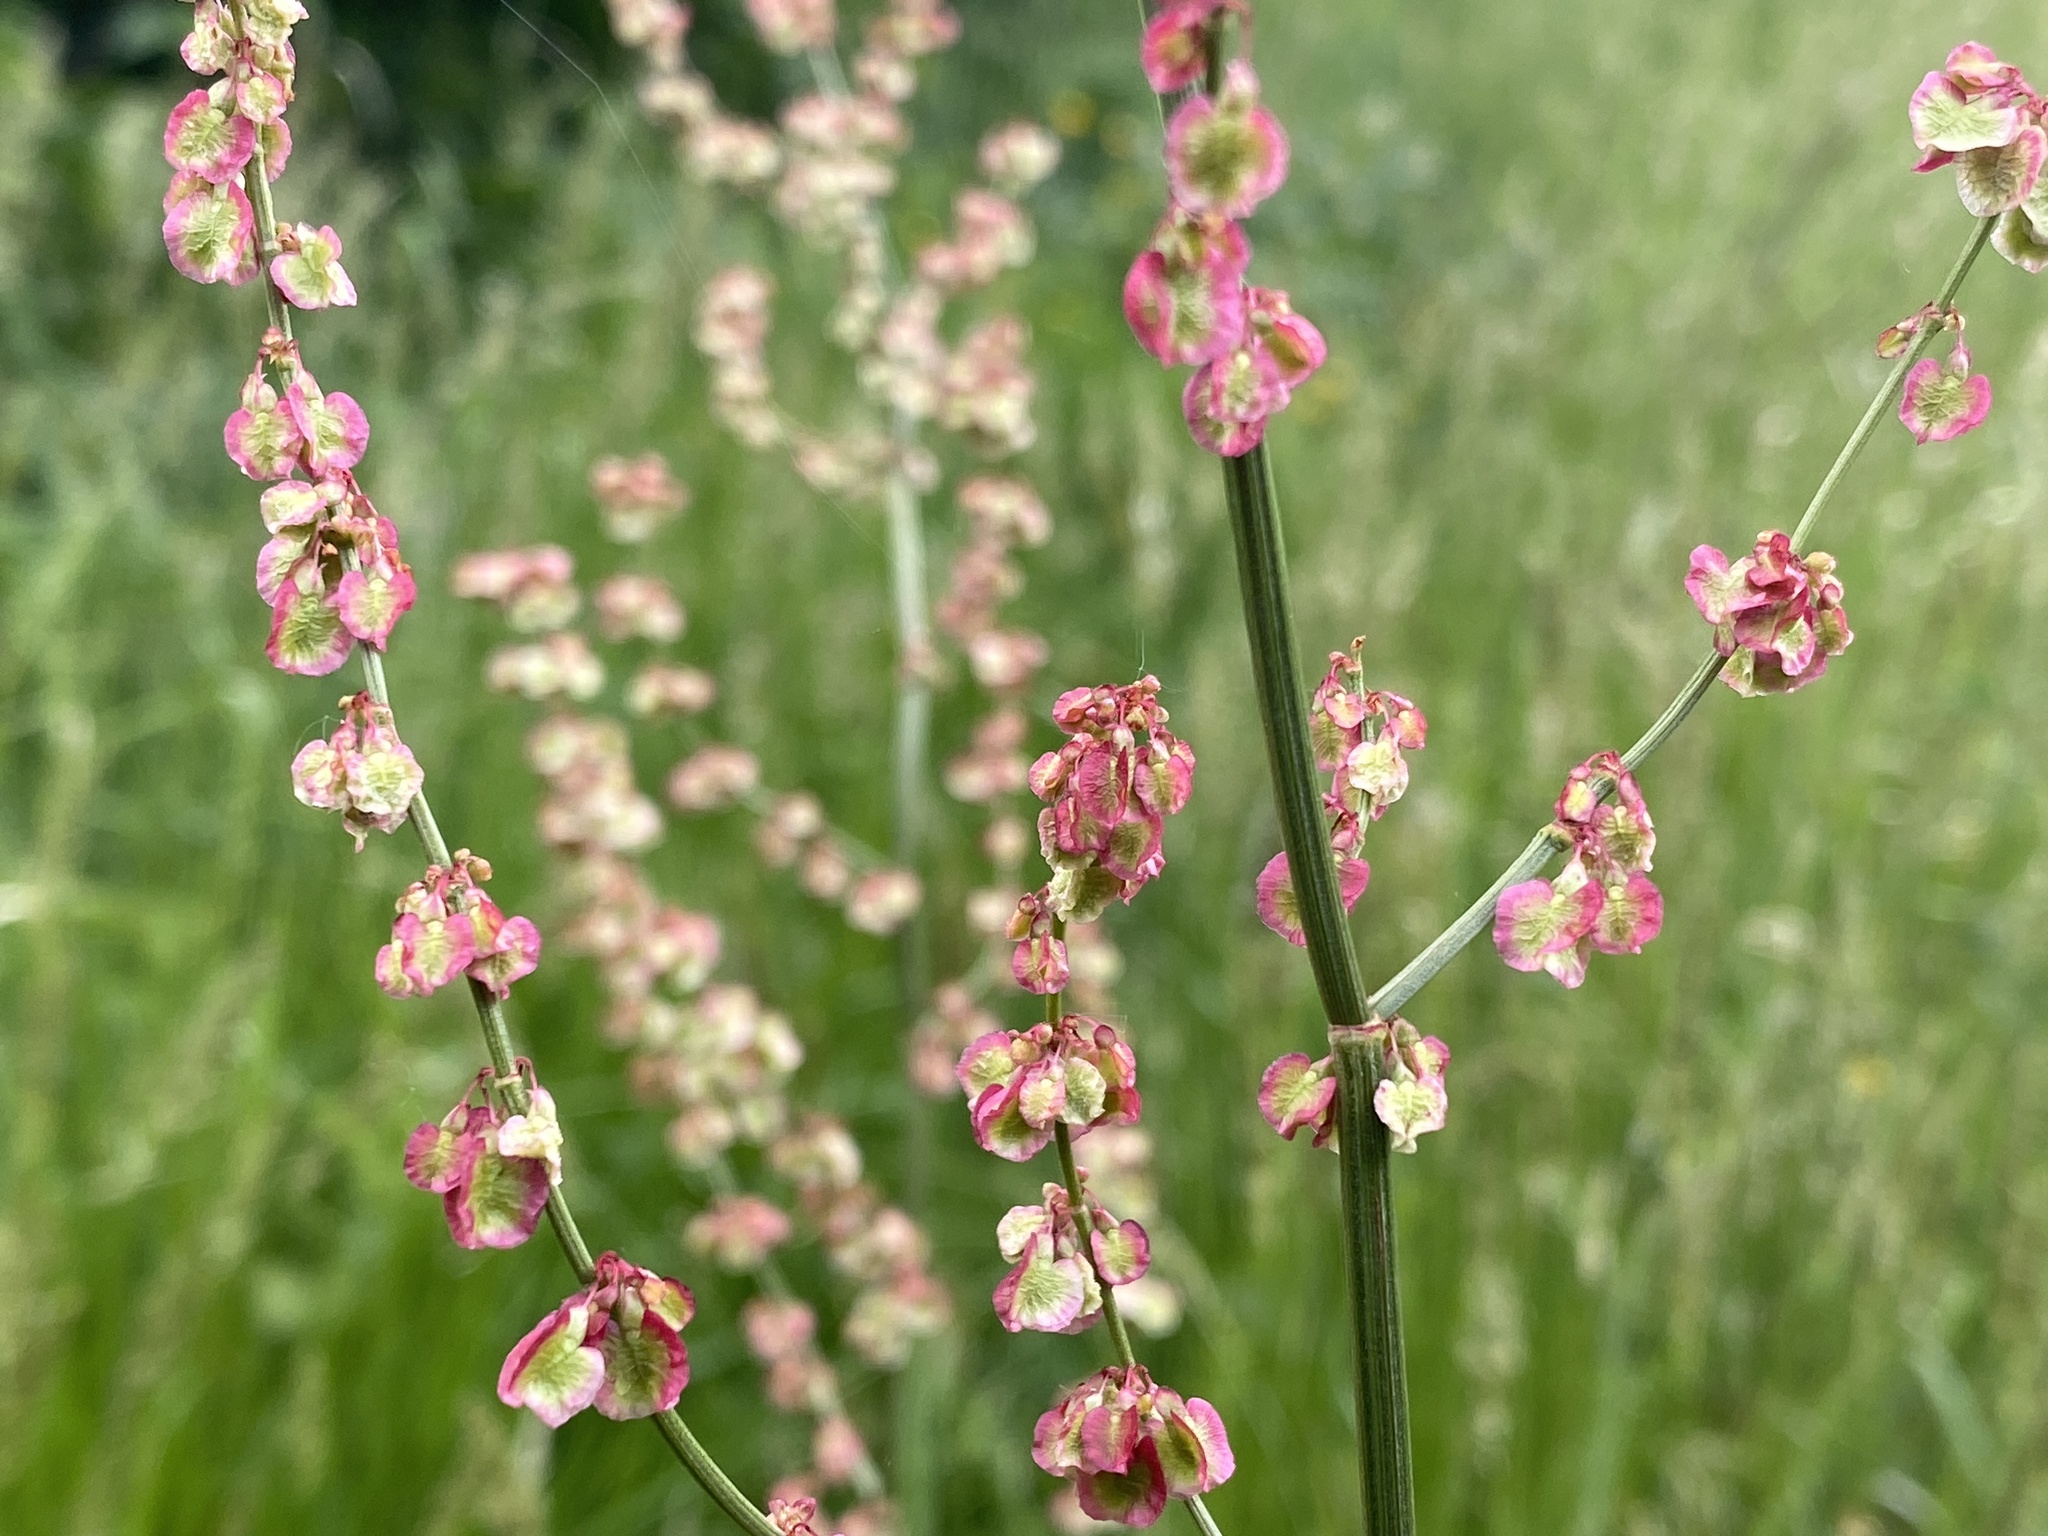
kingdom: Plantae
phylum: Tracheophyta
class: Magnoliopsida
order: Caryophyllales
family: Polygonaceae
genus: Rumex
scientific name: Rumex acetosa
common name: Garden sorrel
